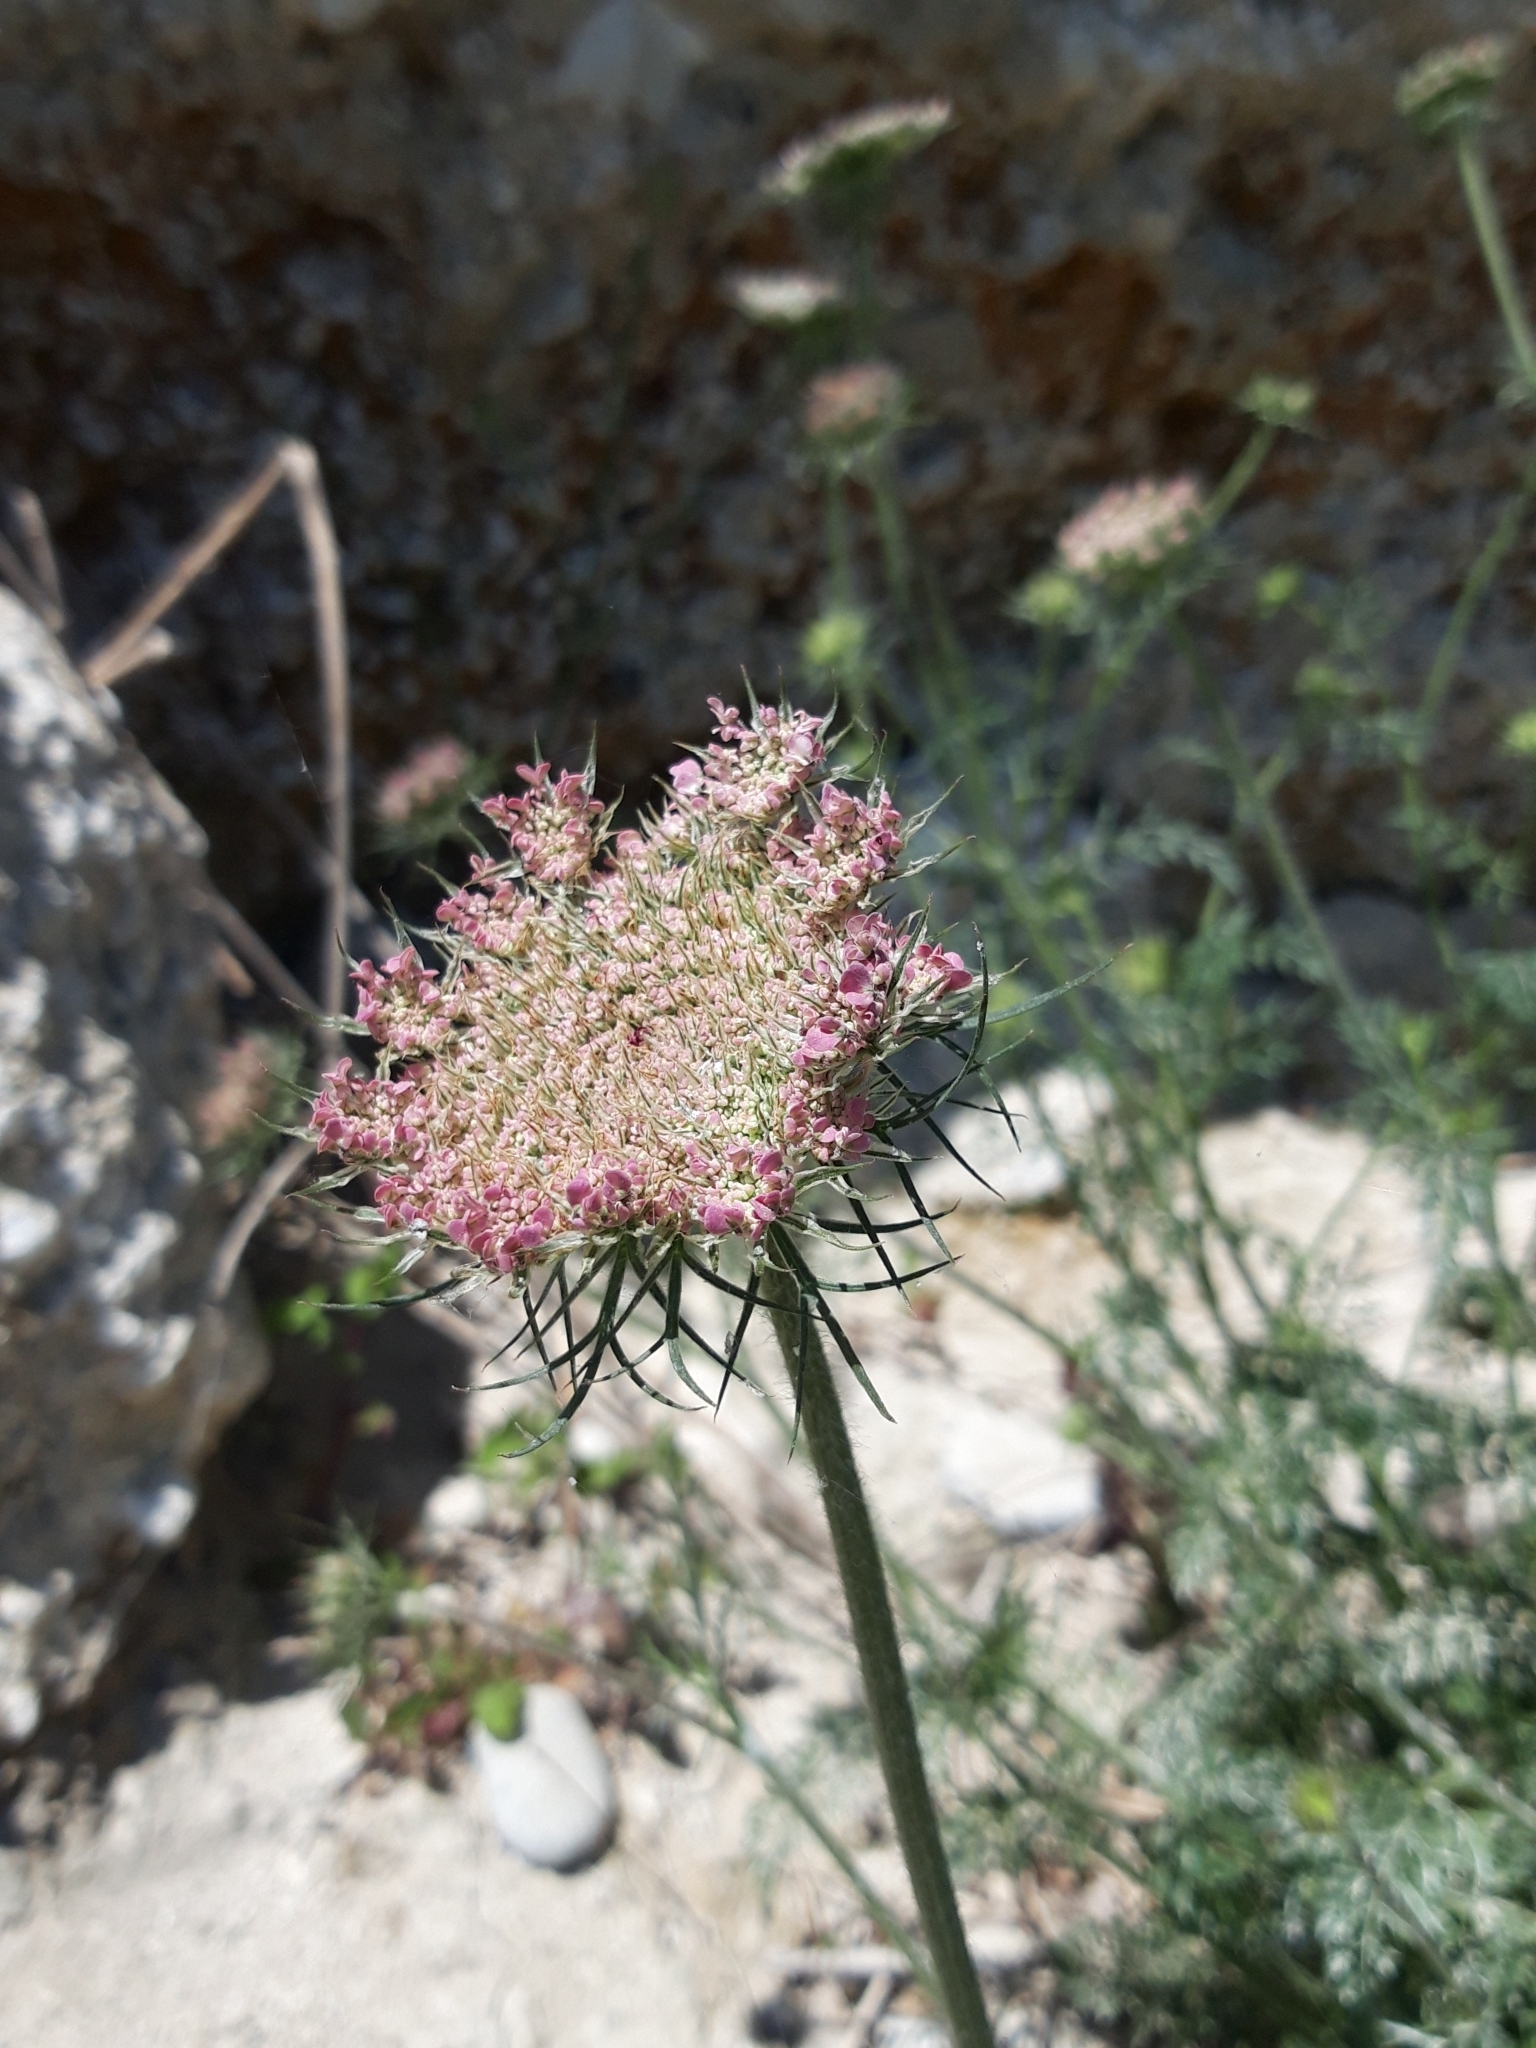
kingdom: Plantae
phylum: Tracheophyta
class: Magnoliopsida
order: Apiales
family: Apiaceae
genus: Daucus
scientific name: Daucus carota
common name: Wild carrot
